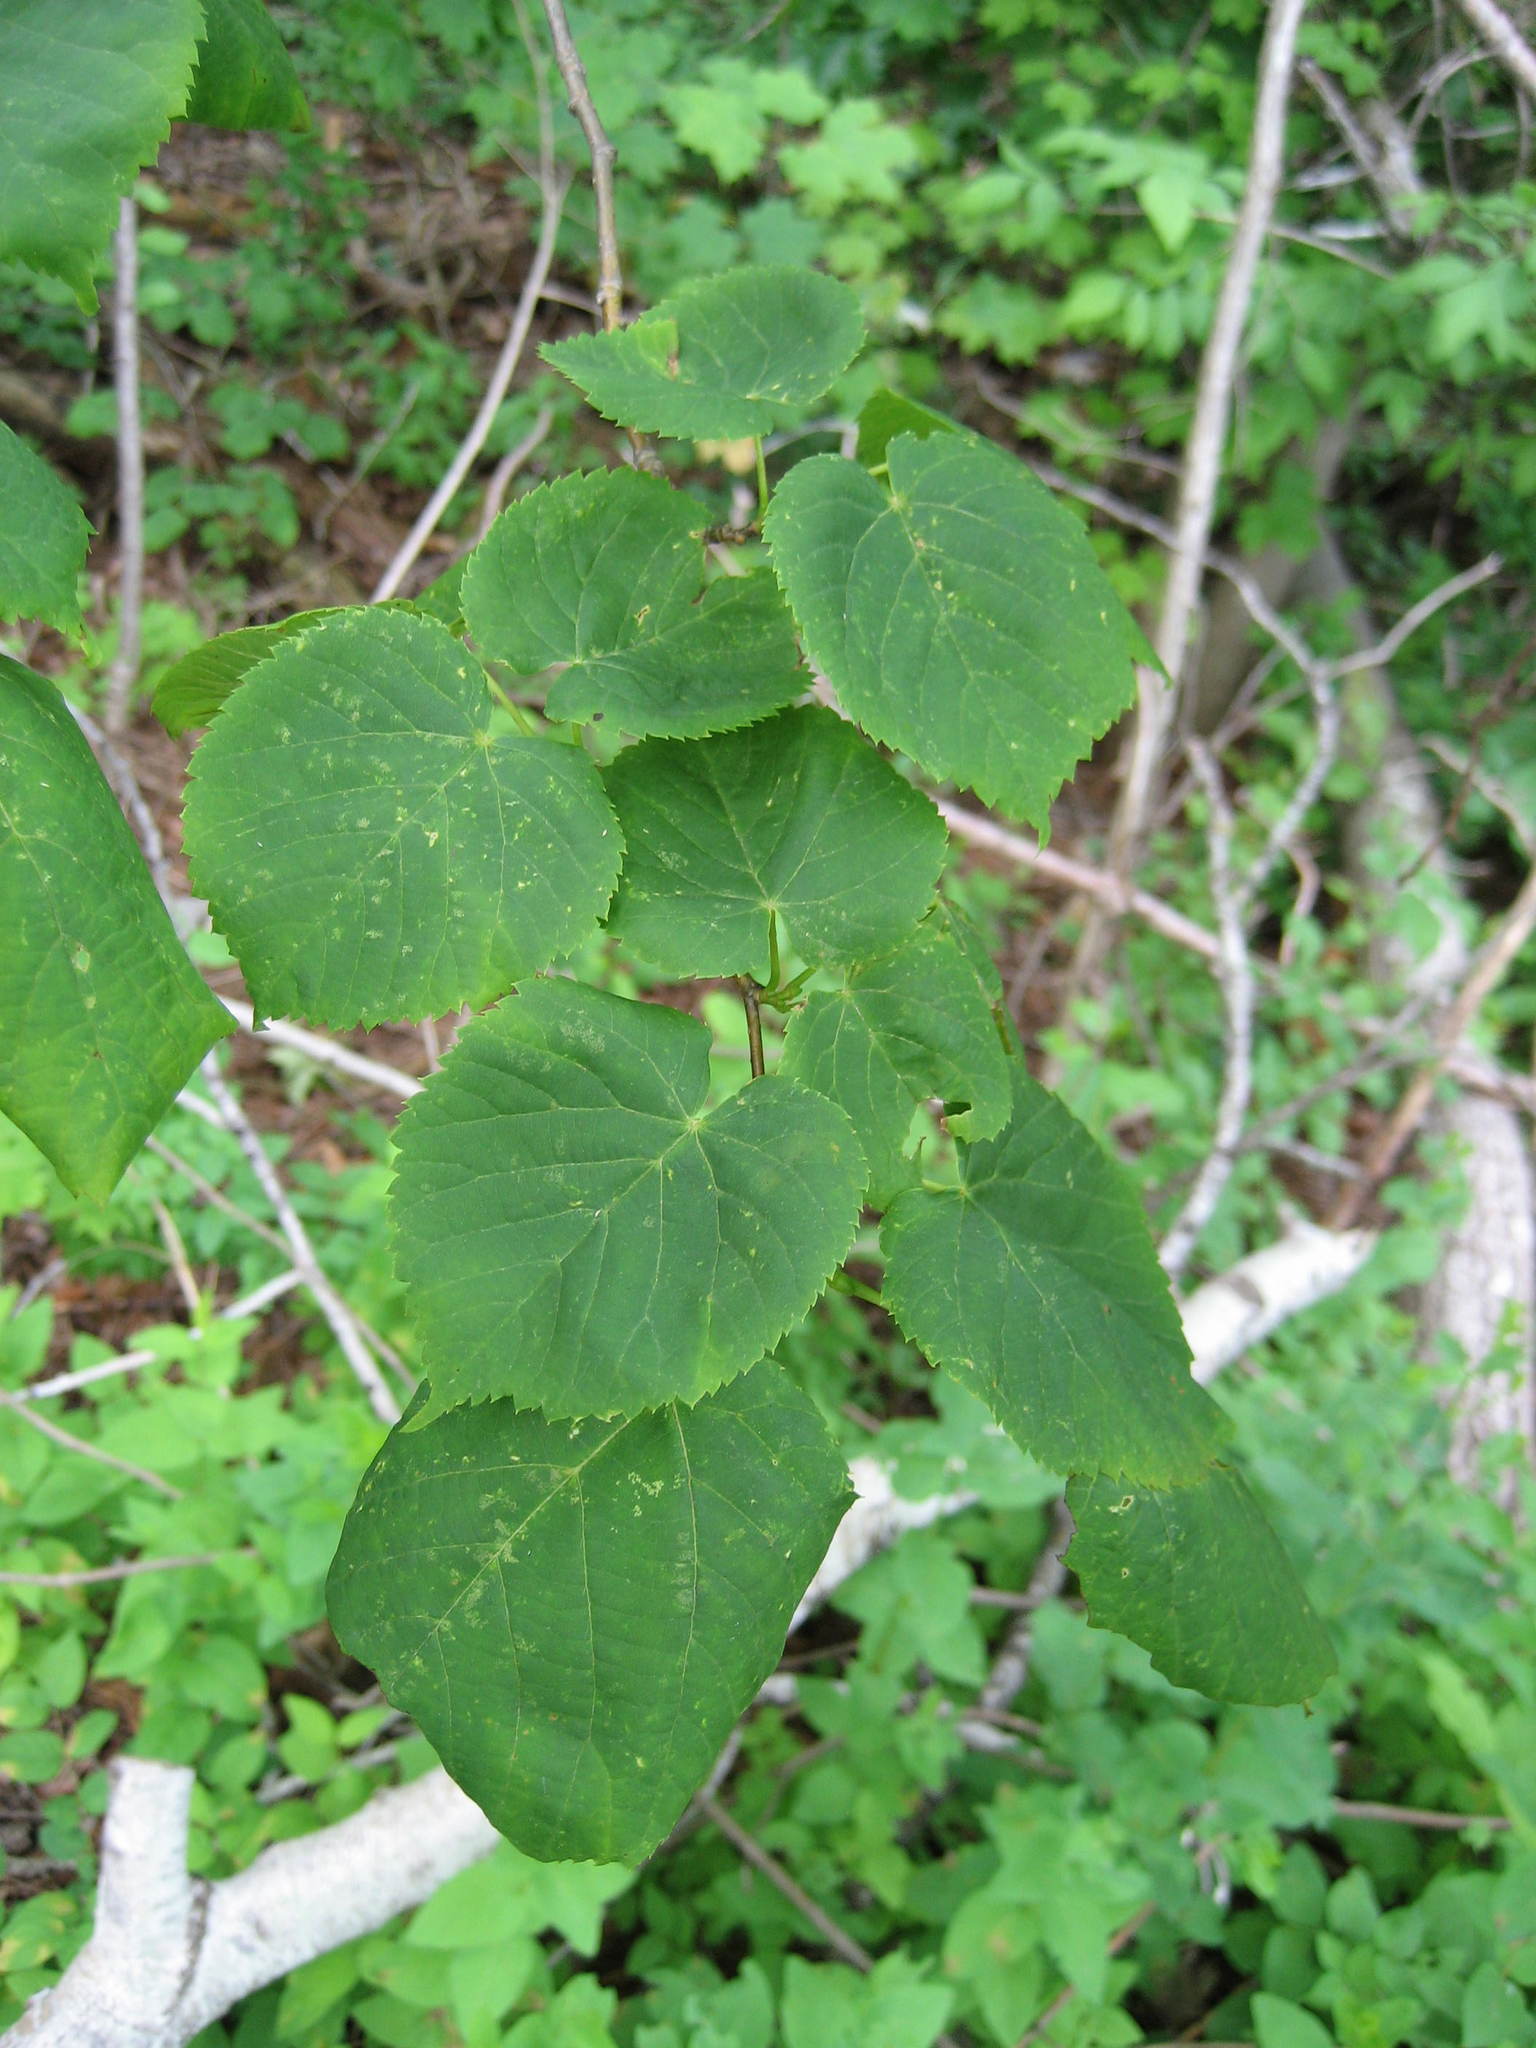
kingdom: Plantae
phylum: Tracheophyta
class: Magnoliopsida
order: Malvales
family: Malvaceae
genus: Tilia
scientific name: Tilia cordata
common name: Small-leaved lime
